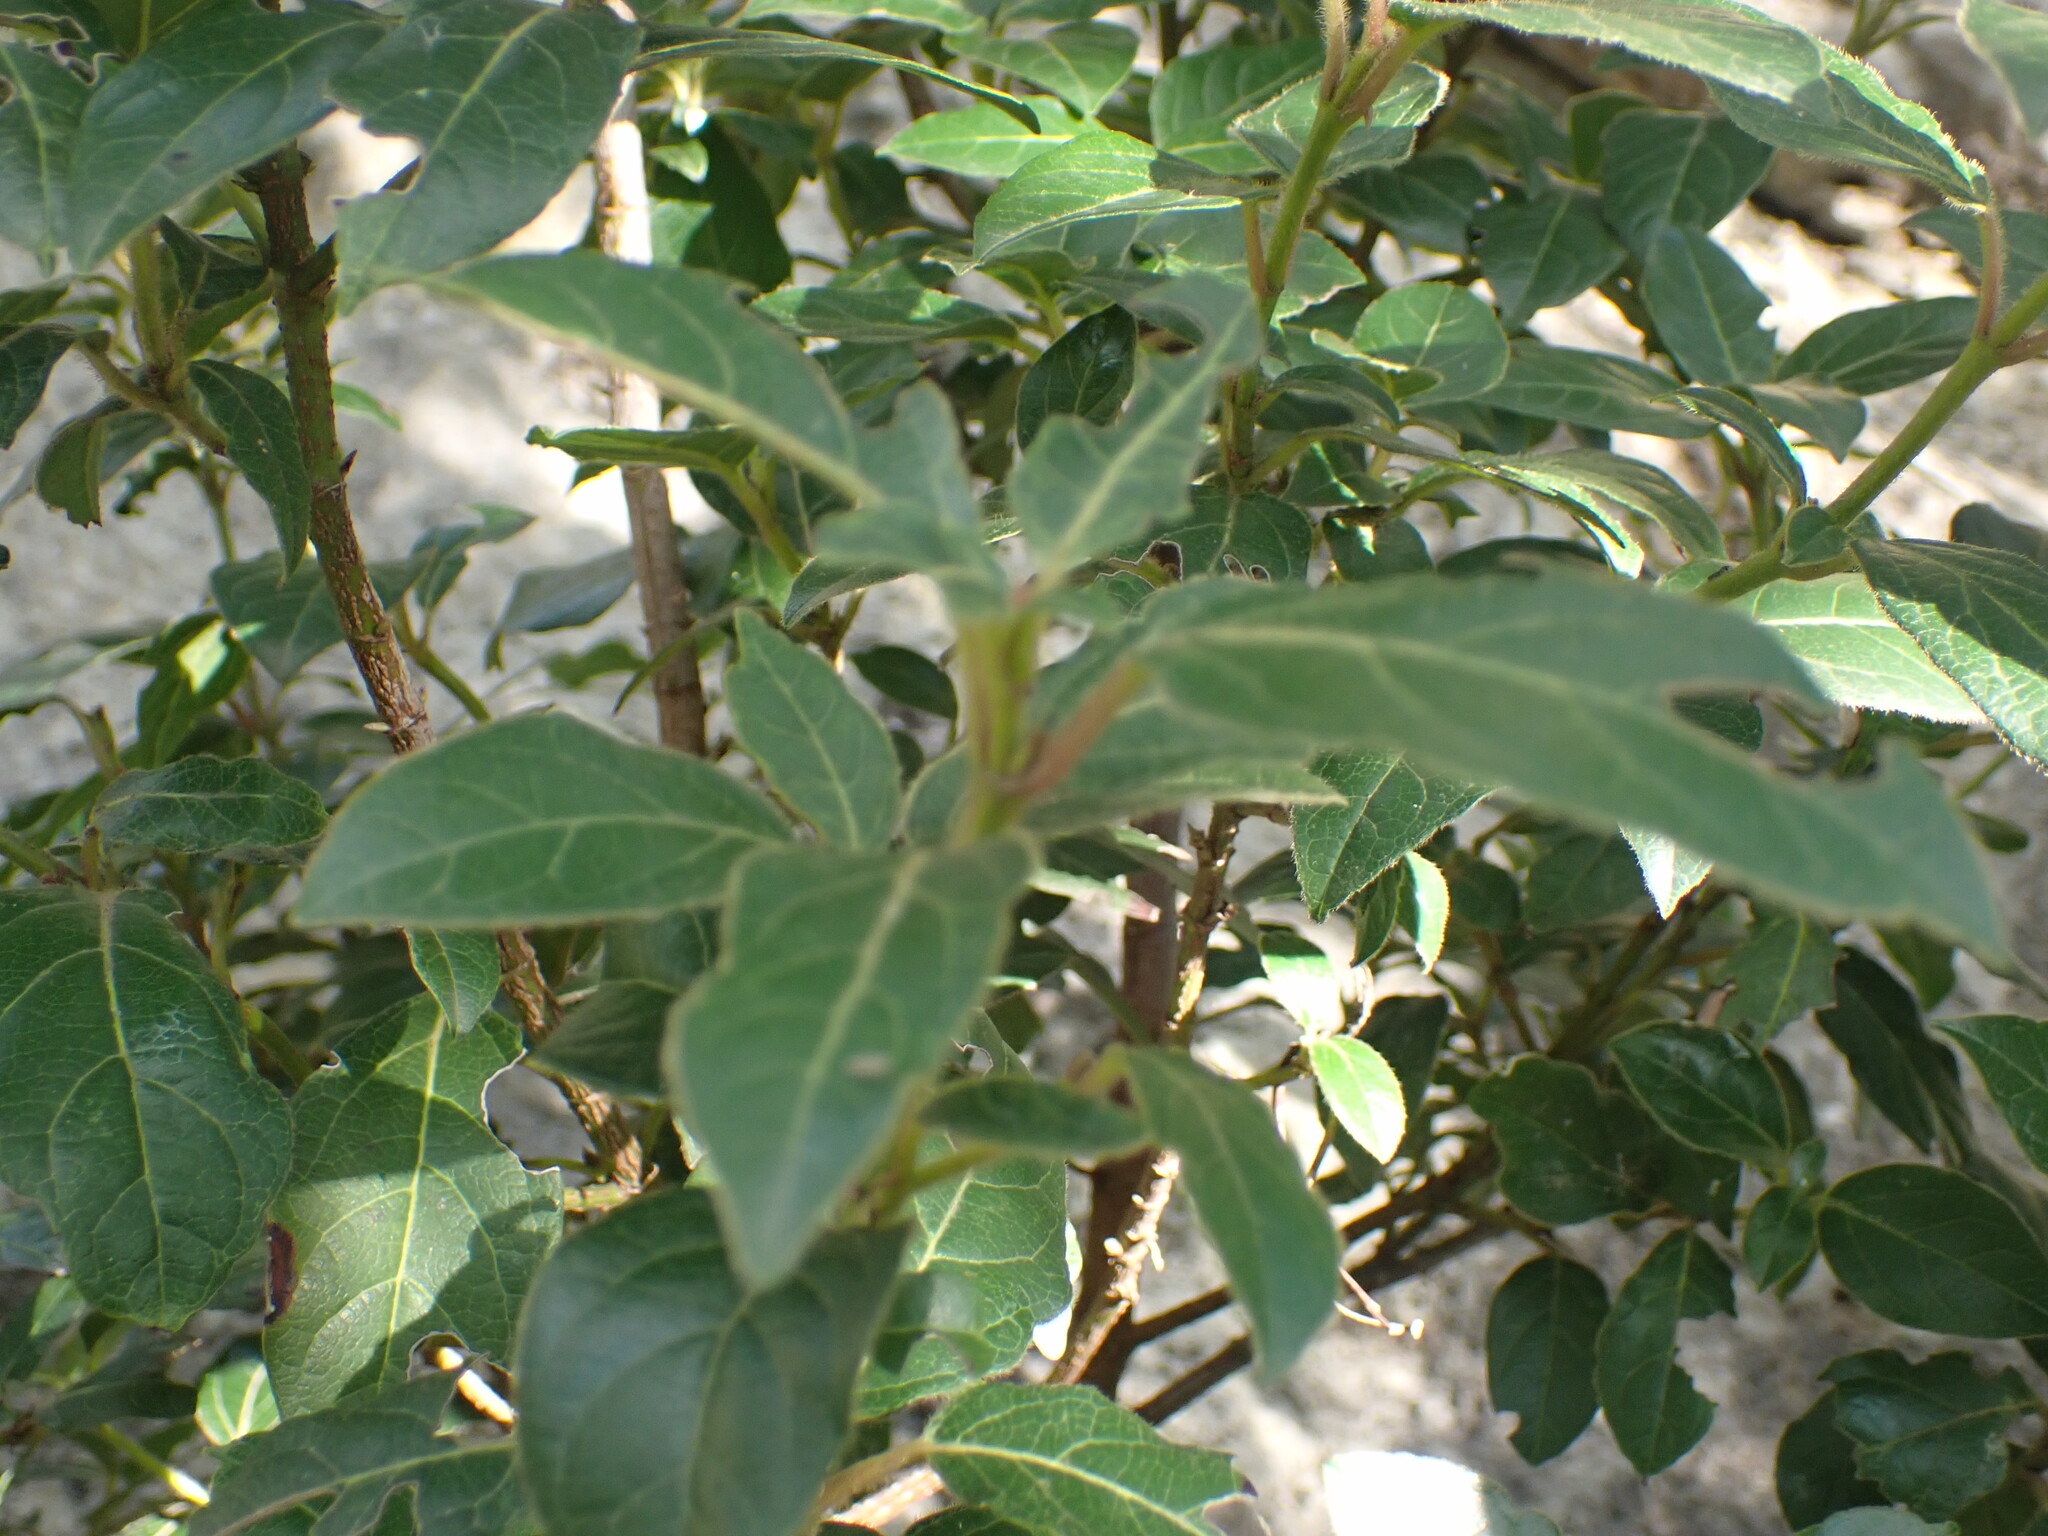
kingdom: Plantae
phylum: Tracheophyta
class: Magnoliopsida
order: Dipsacales
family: Viburnaceae
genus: Viburnum
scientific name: Viburnum tinus
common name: Laurustinus
